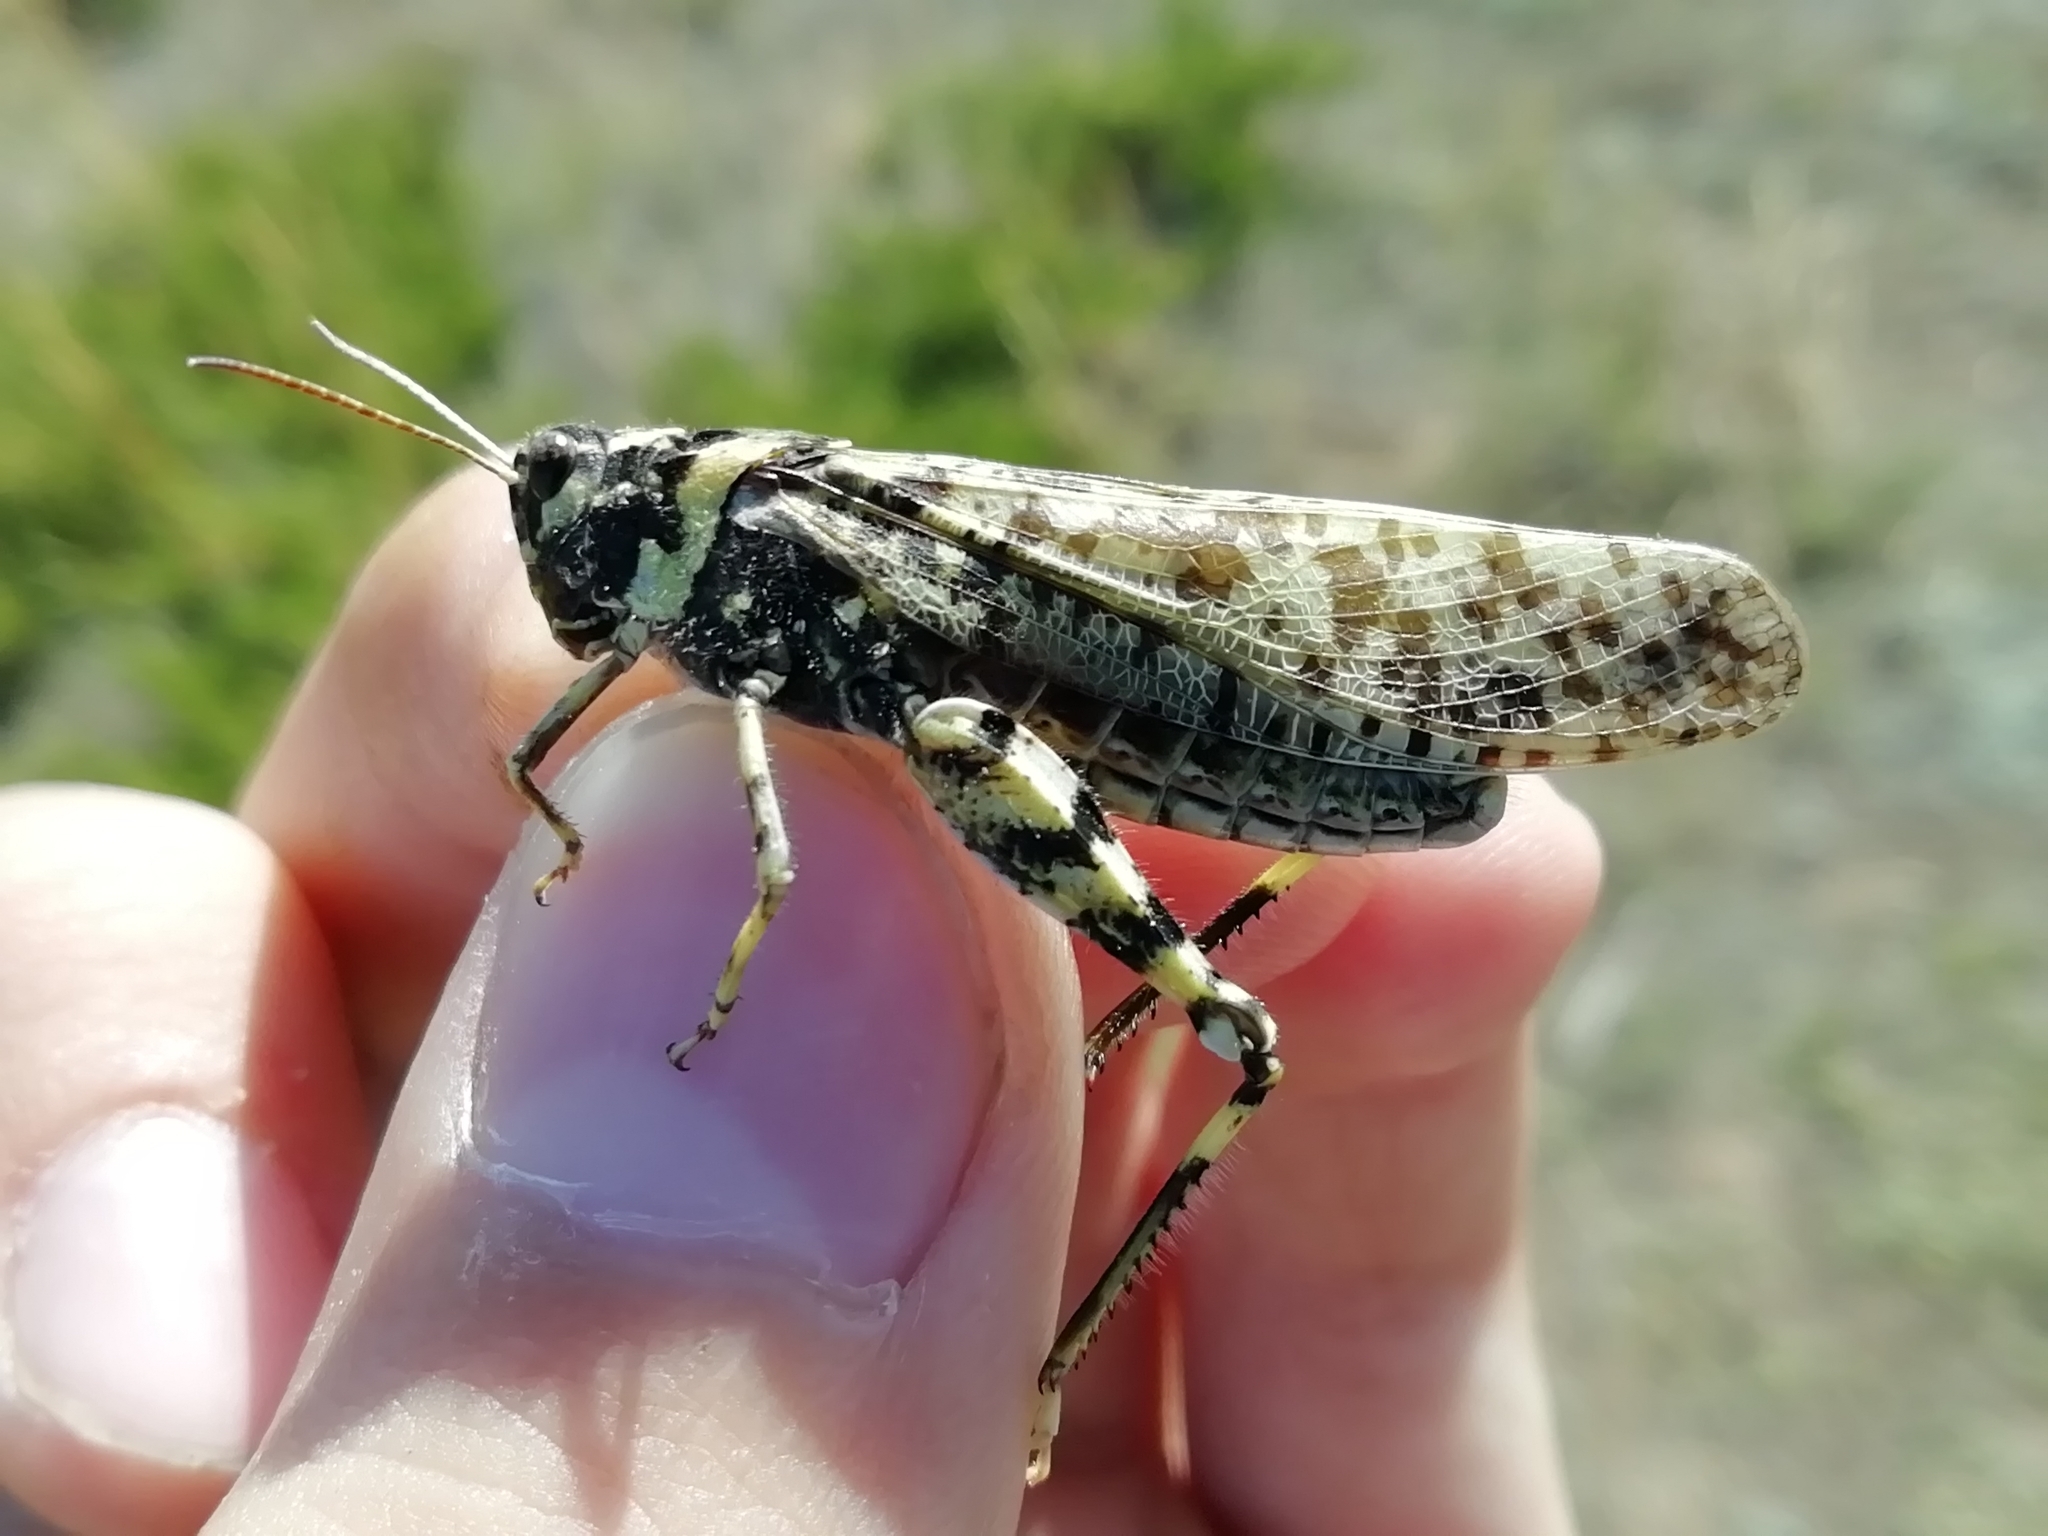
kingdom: Animalia
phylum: Arthropoda
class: Insecta
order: Orthoptera
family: Acrididae
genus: Angaracris
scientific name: Angaracris barabensis
